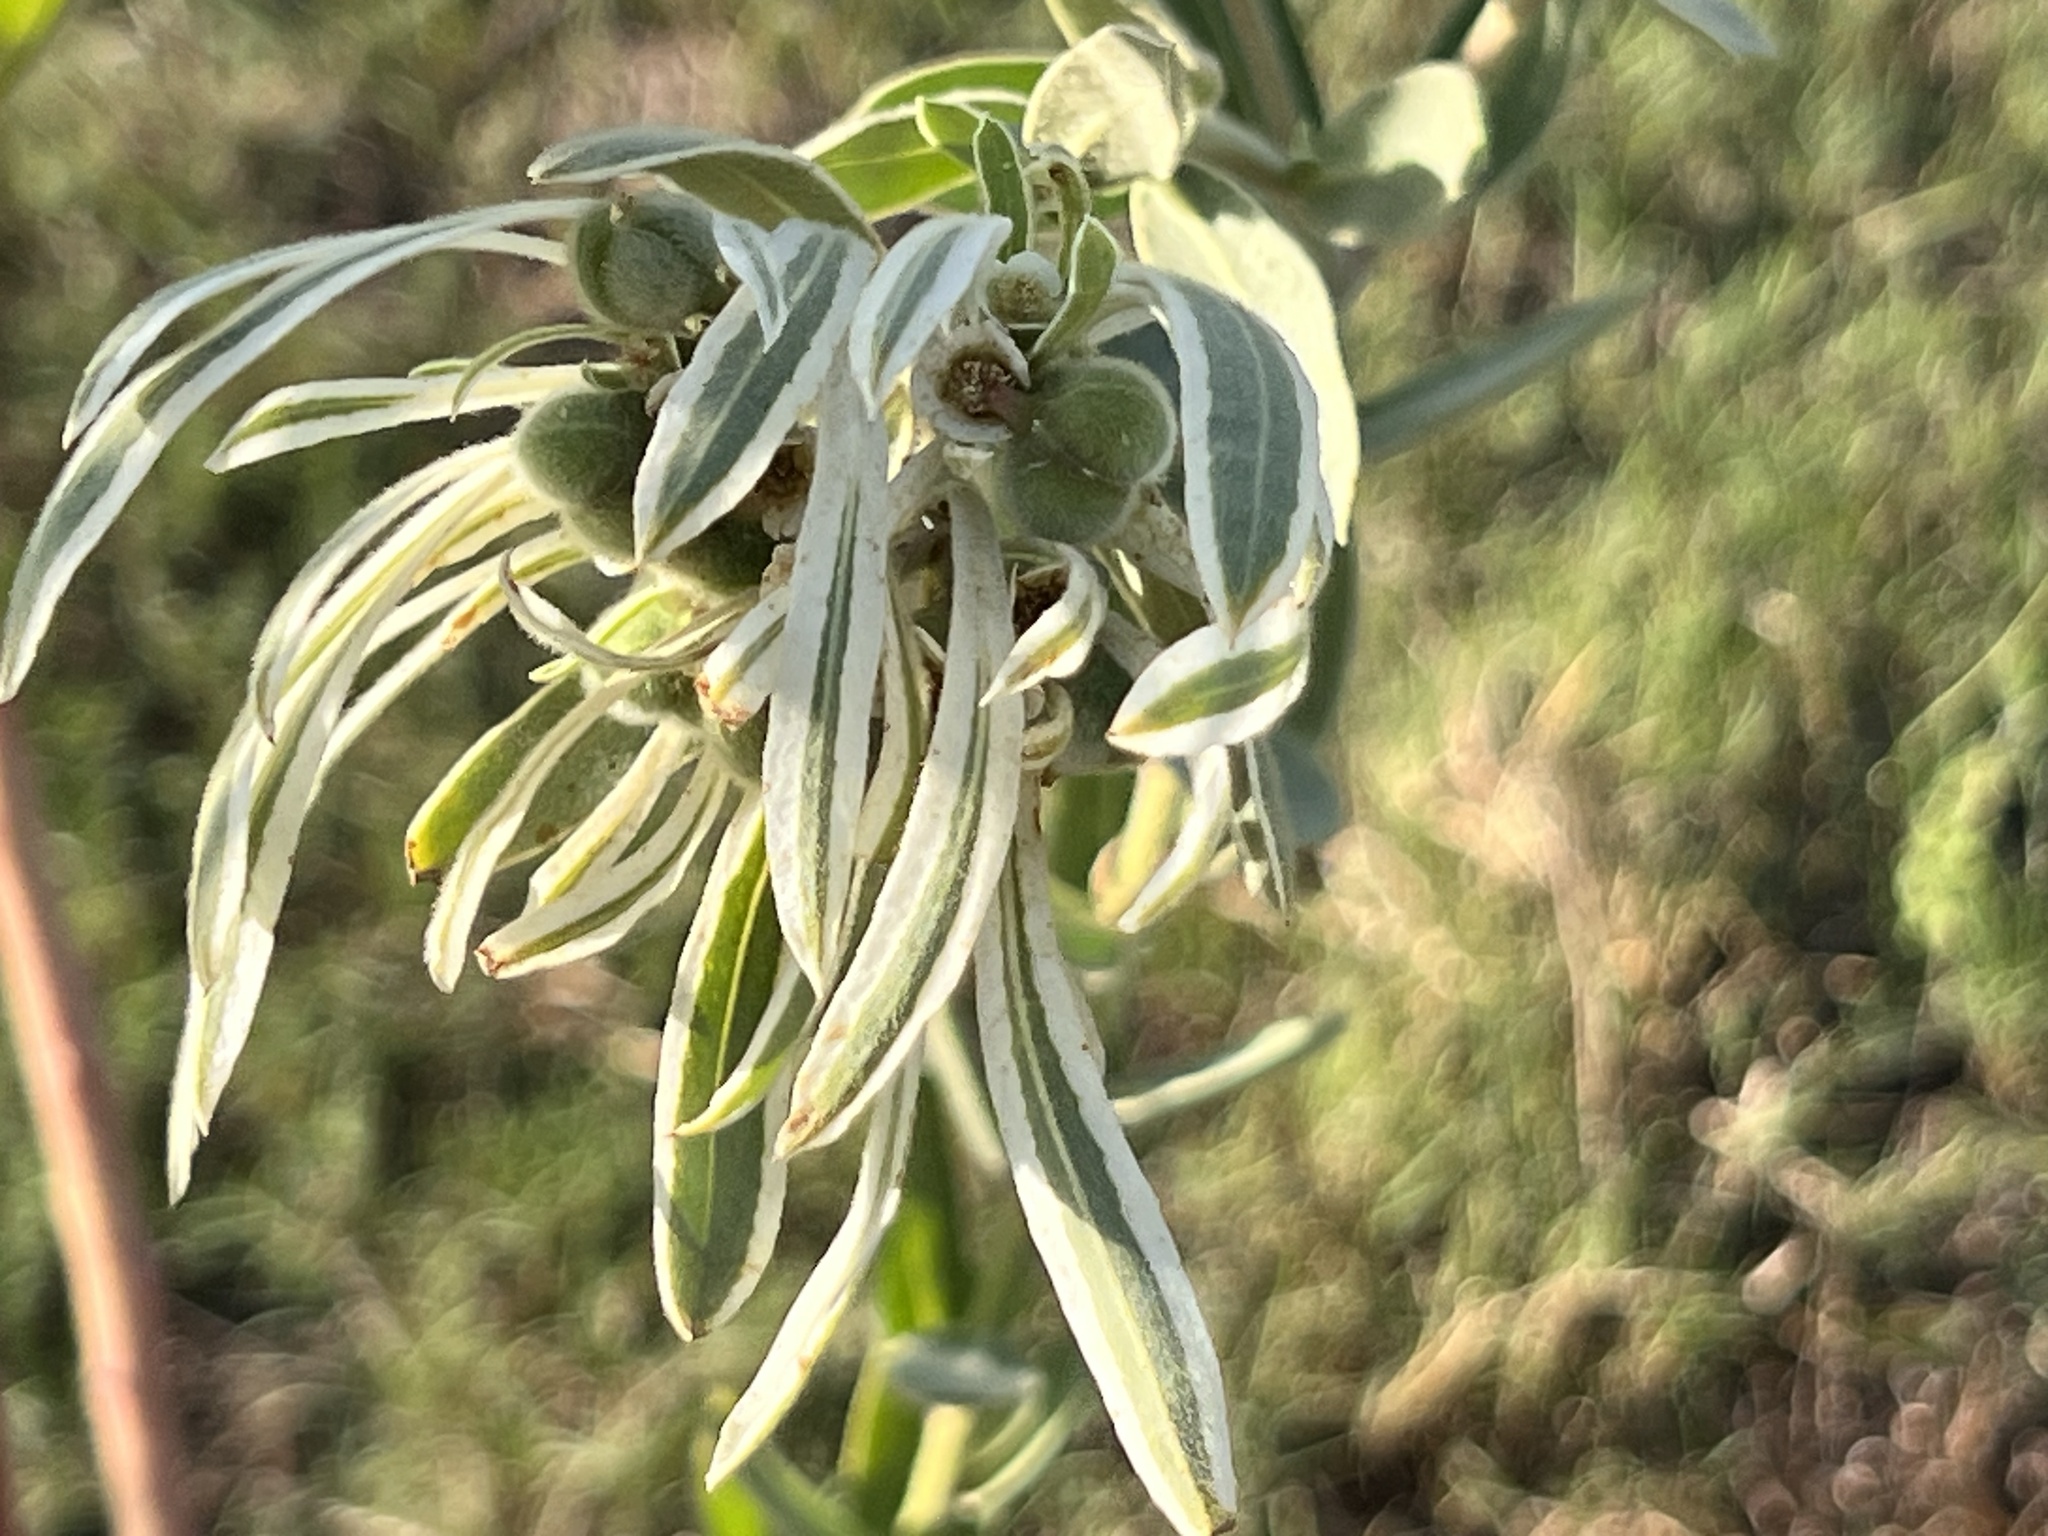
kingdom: Plantae
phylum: Tracheophyta
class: Magnoliopsida
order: Malpighiales
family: Euphorbiaceae
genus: Euphorbia
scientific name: Euphorbia bicolor
